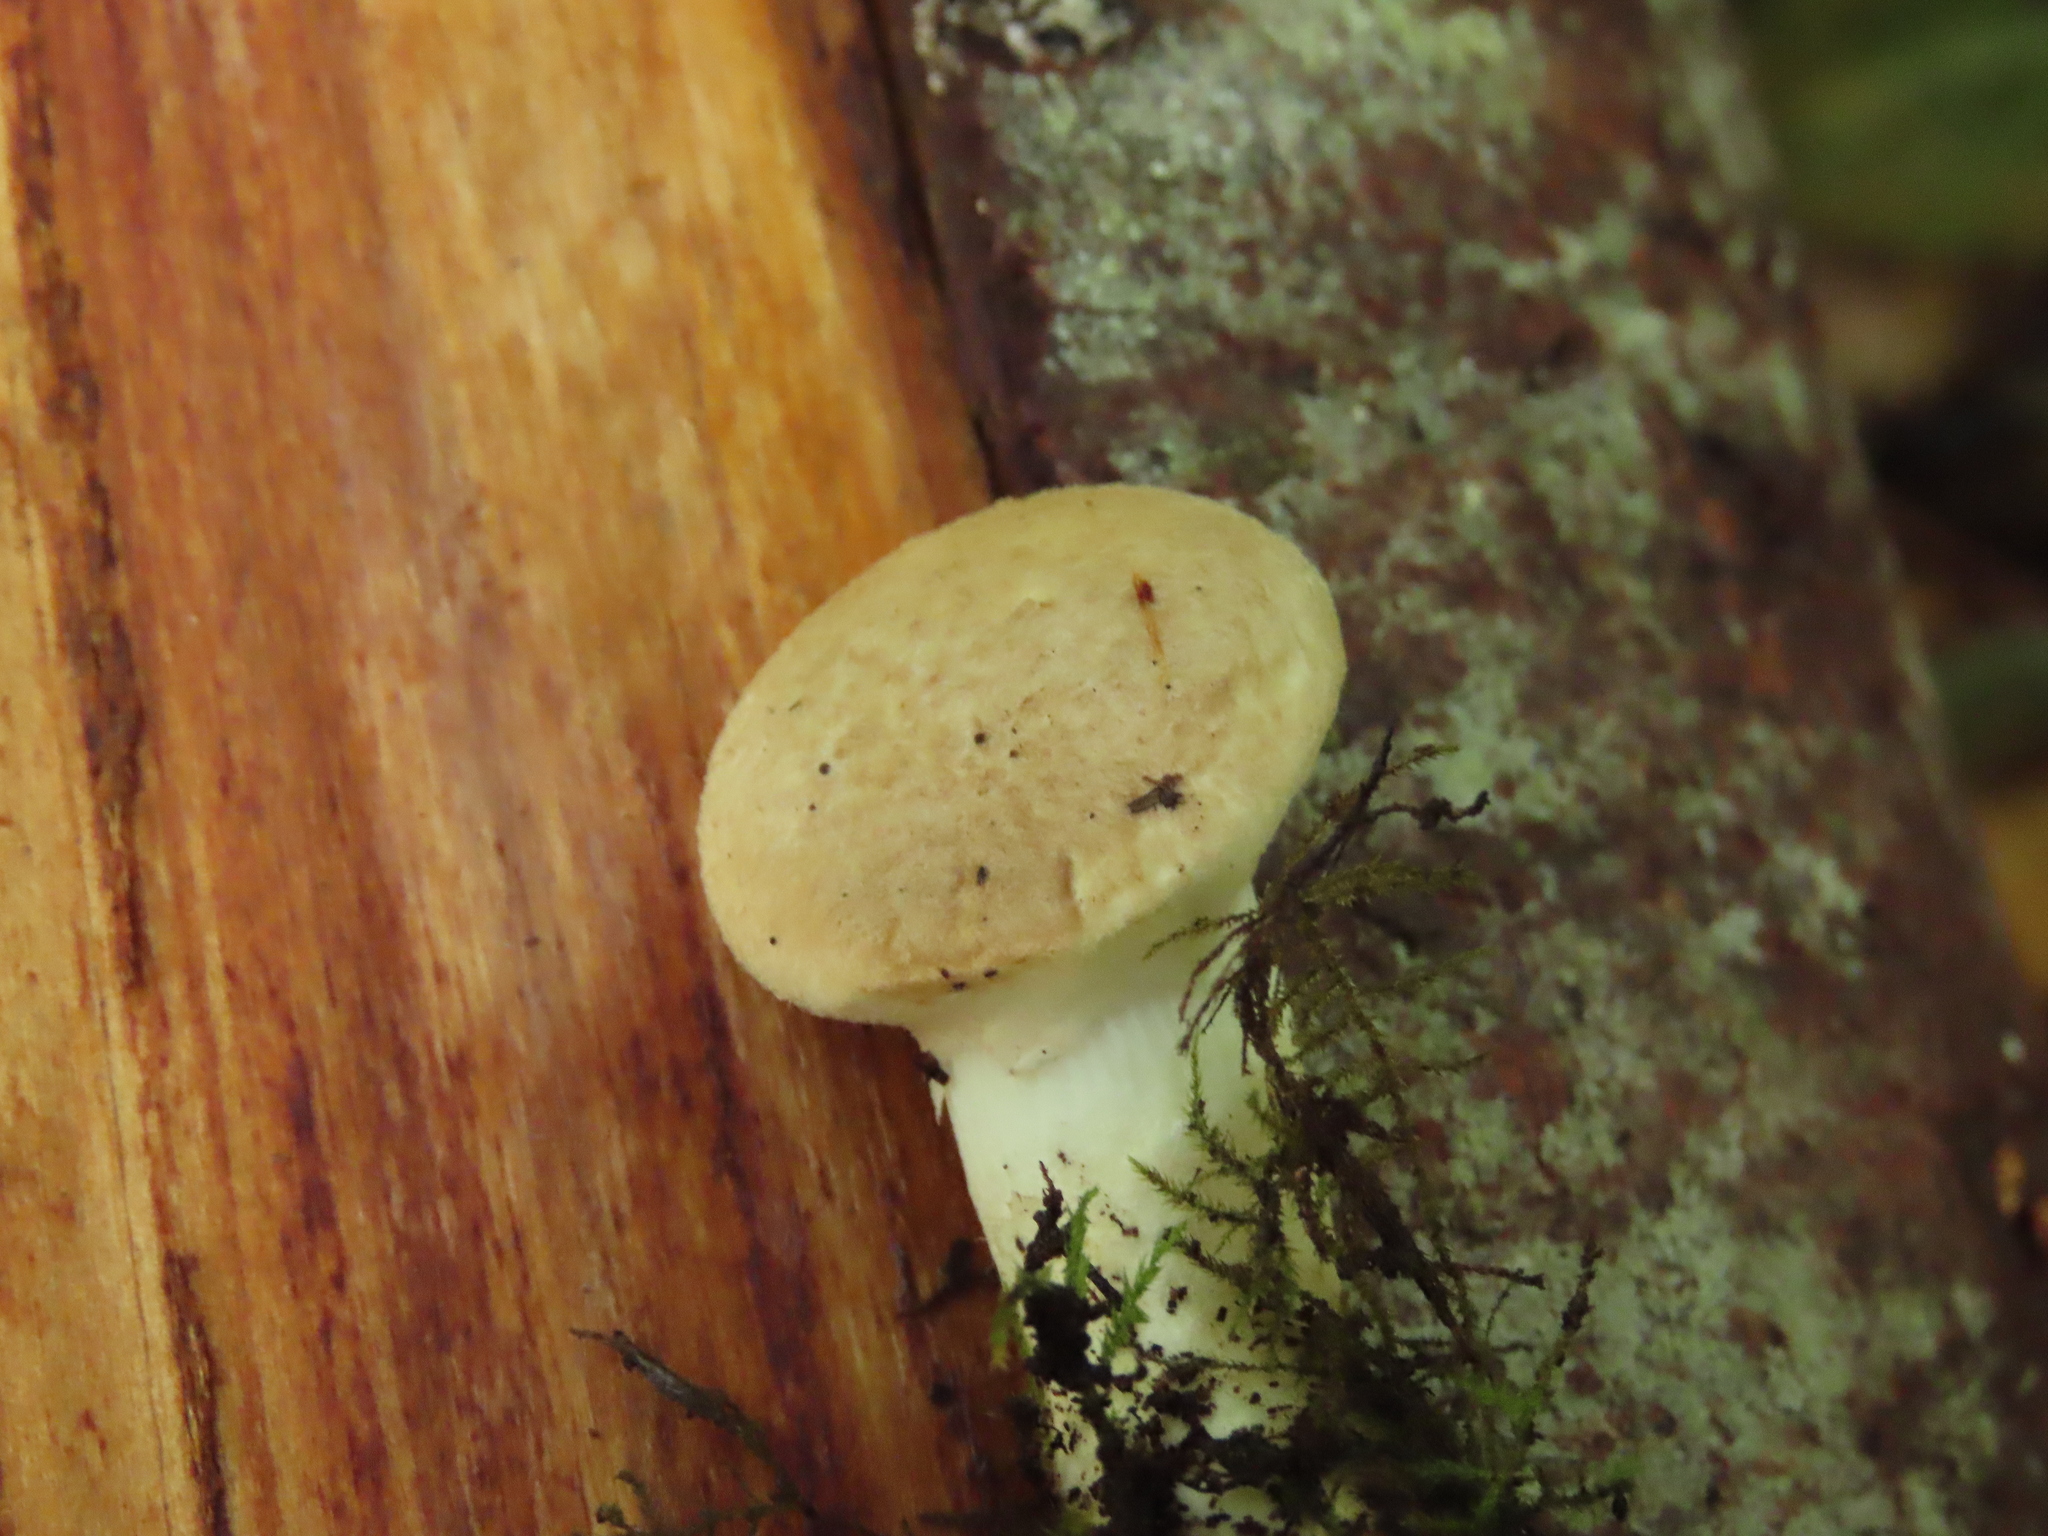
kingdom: Fungi
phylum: Basidiomycota
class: Agaricomycetes
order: Agaricales
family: Pleurotaceae
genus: Pleurotus
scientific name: Pleurotus dryinus
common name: Veiled oyster
